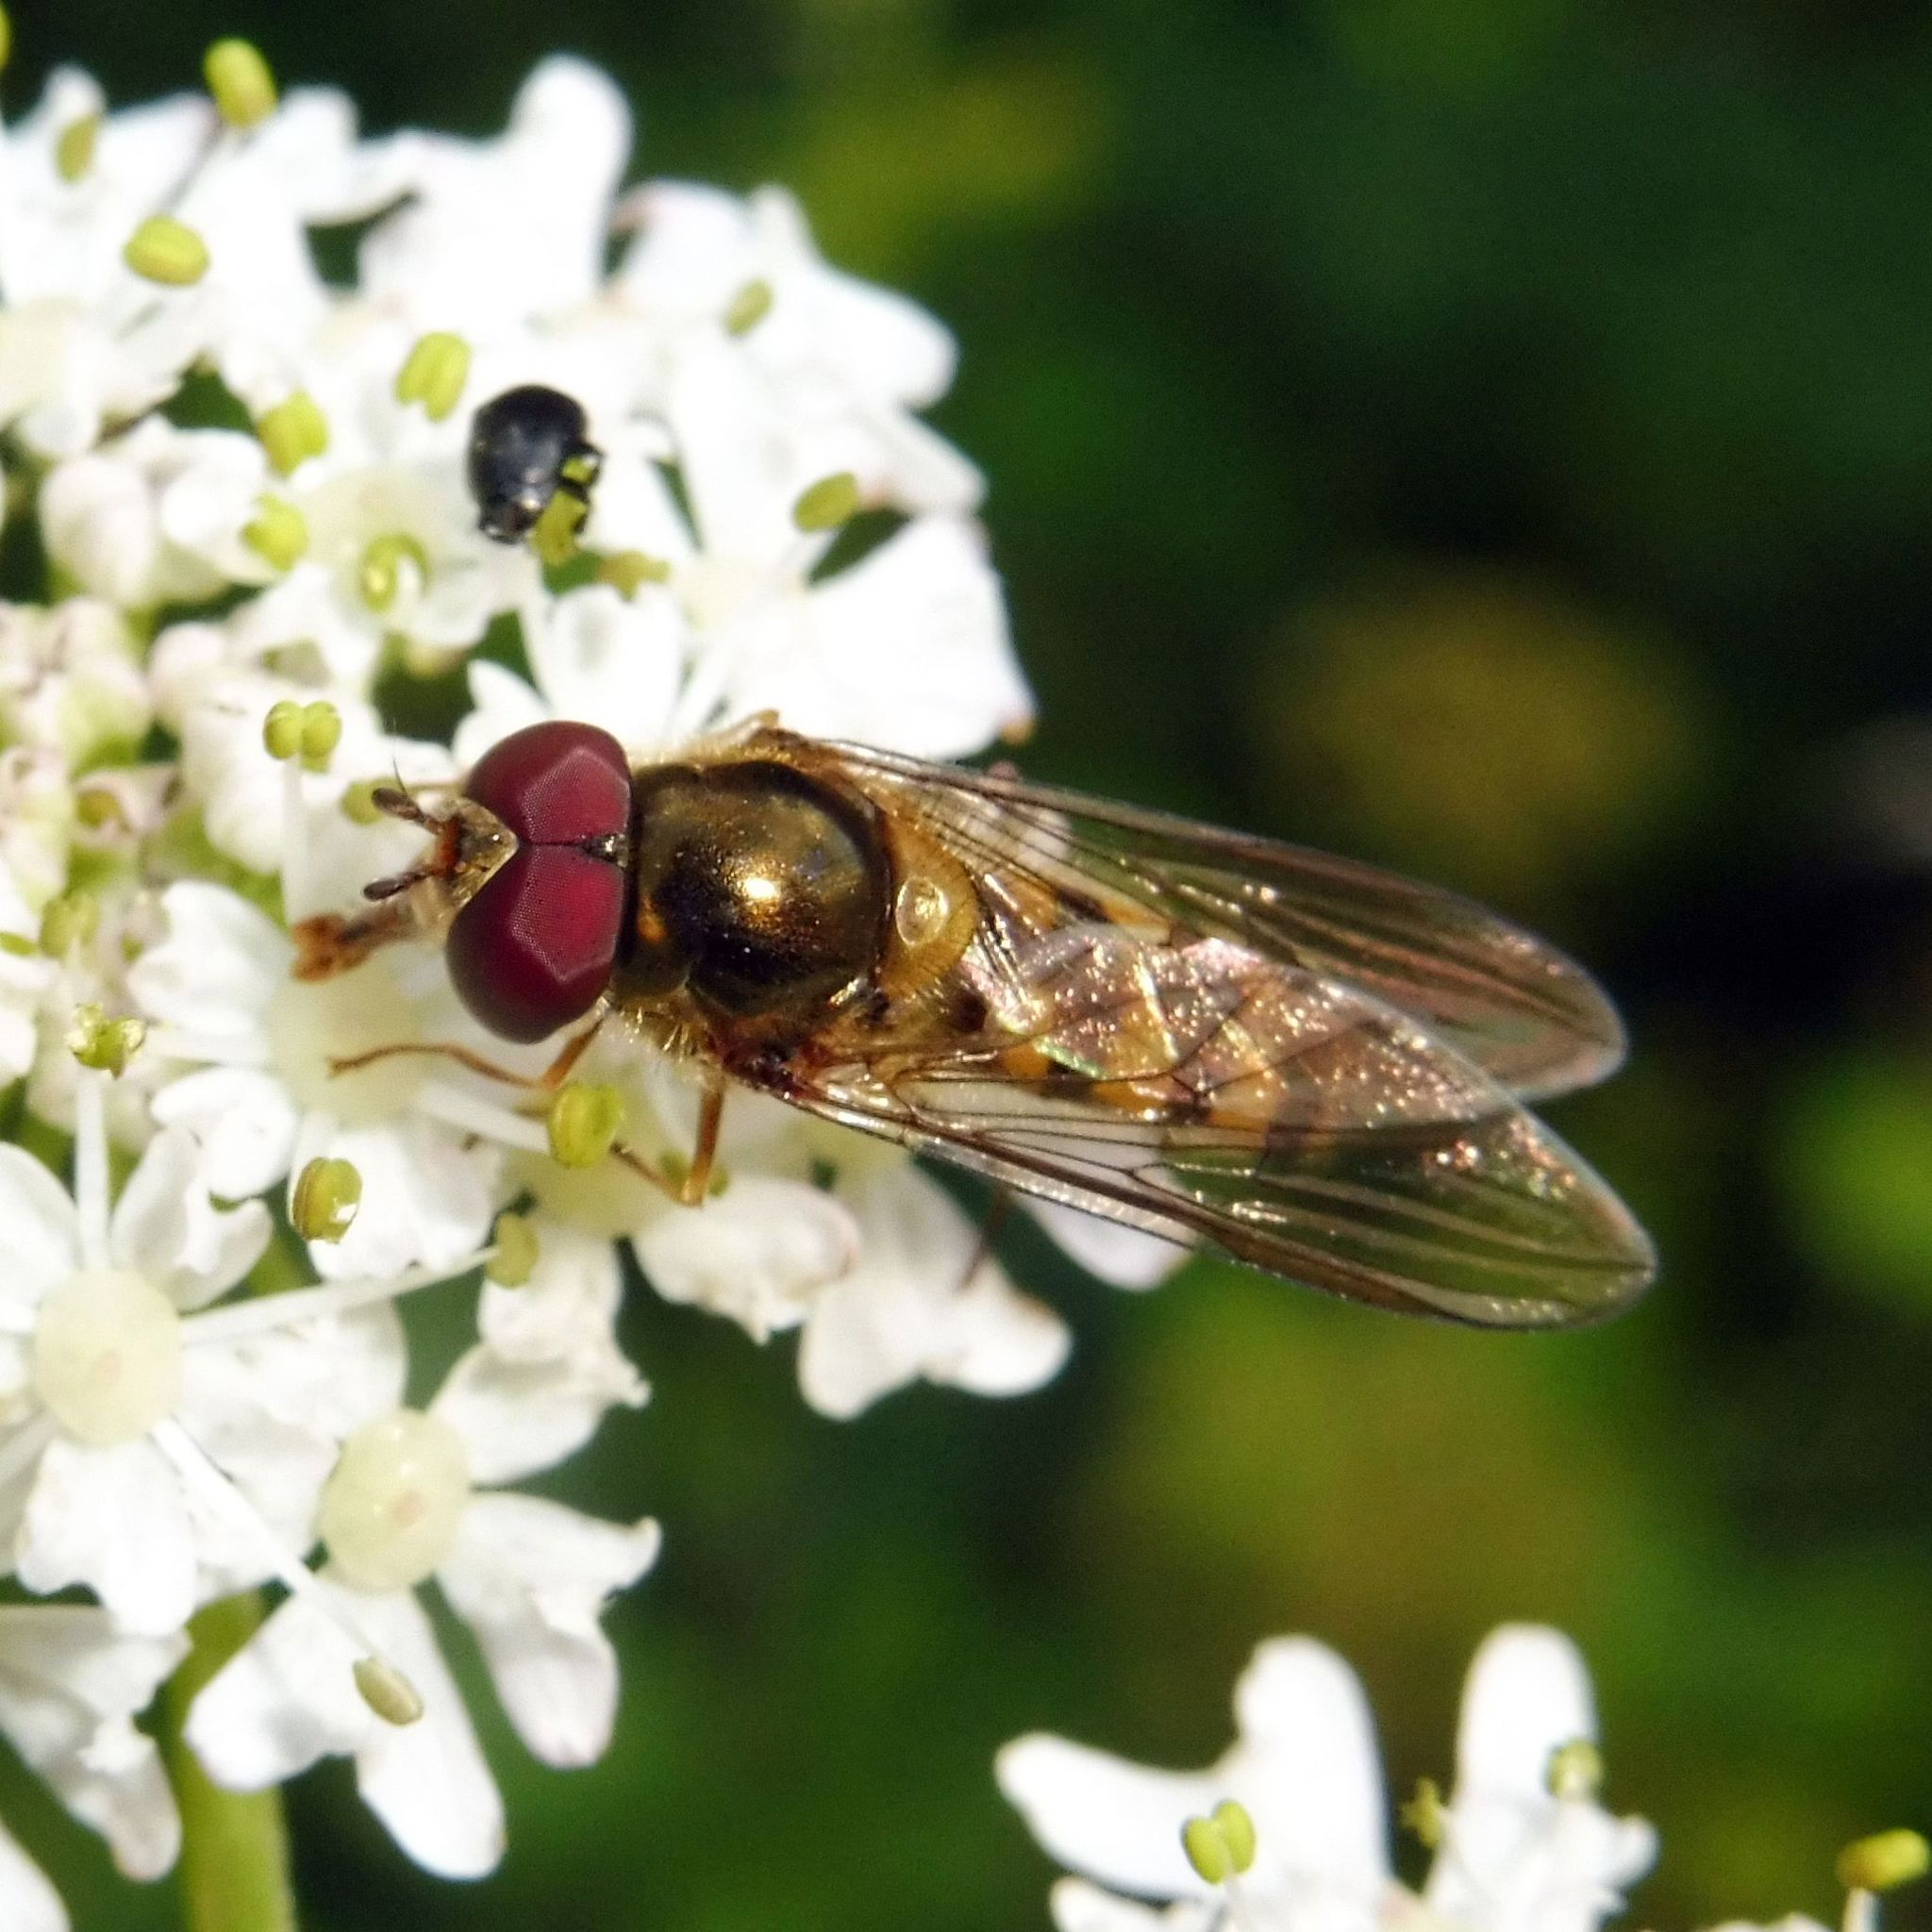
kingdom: Animalia
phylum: Arthropoda
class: Insecta
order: Diptera
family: Syrphidae
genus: Meliscaeva
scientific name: Meliscaeva auricollis
